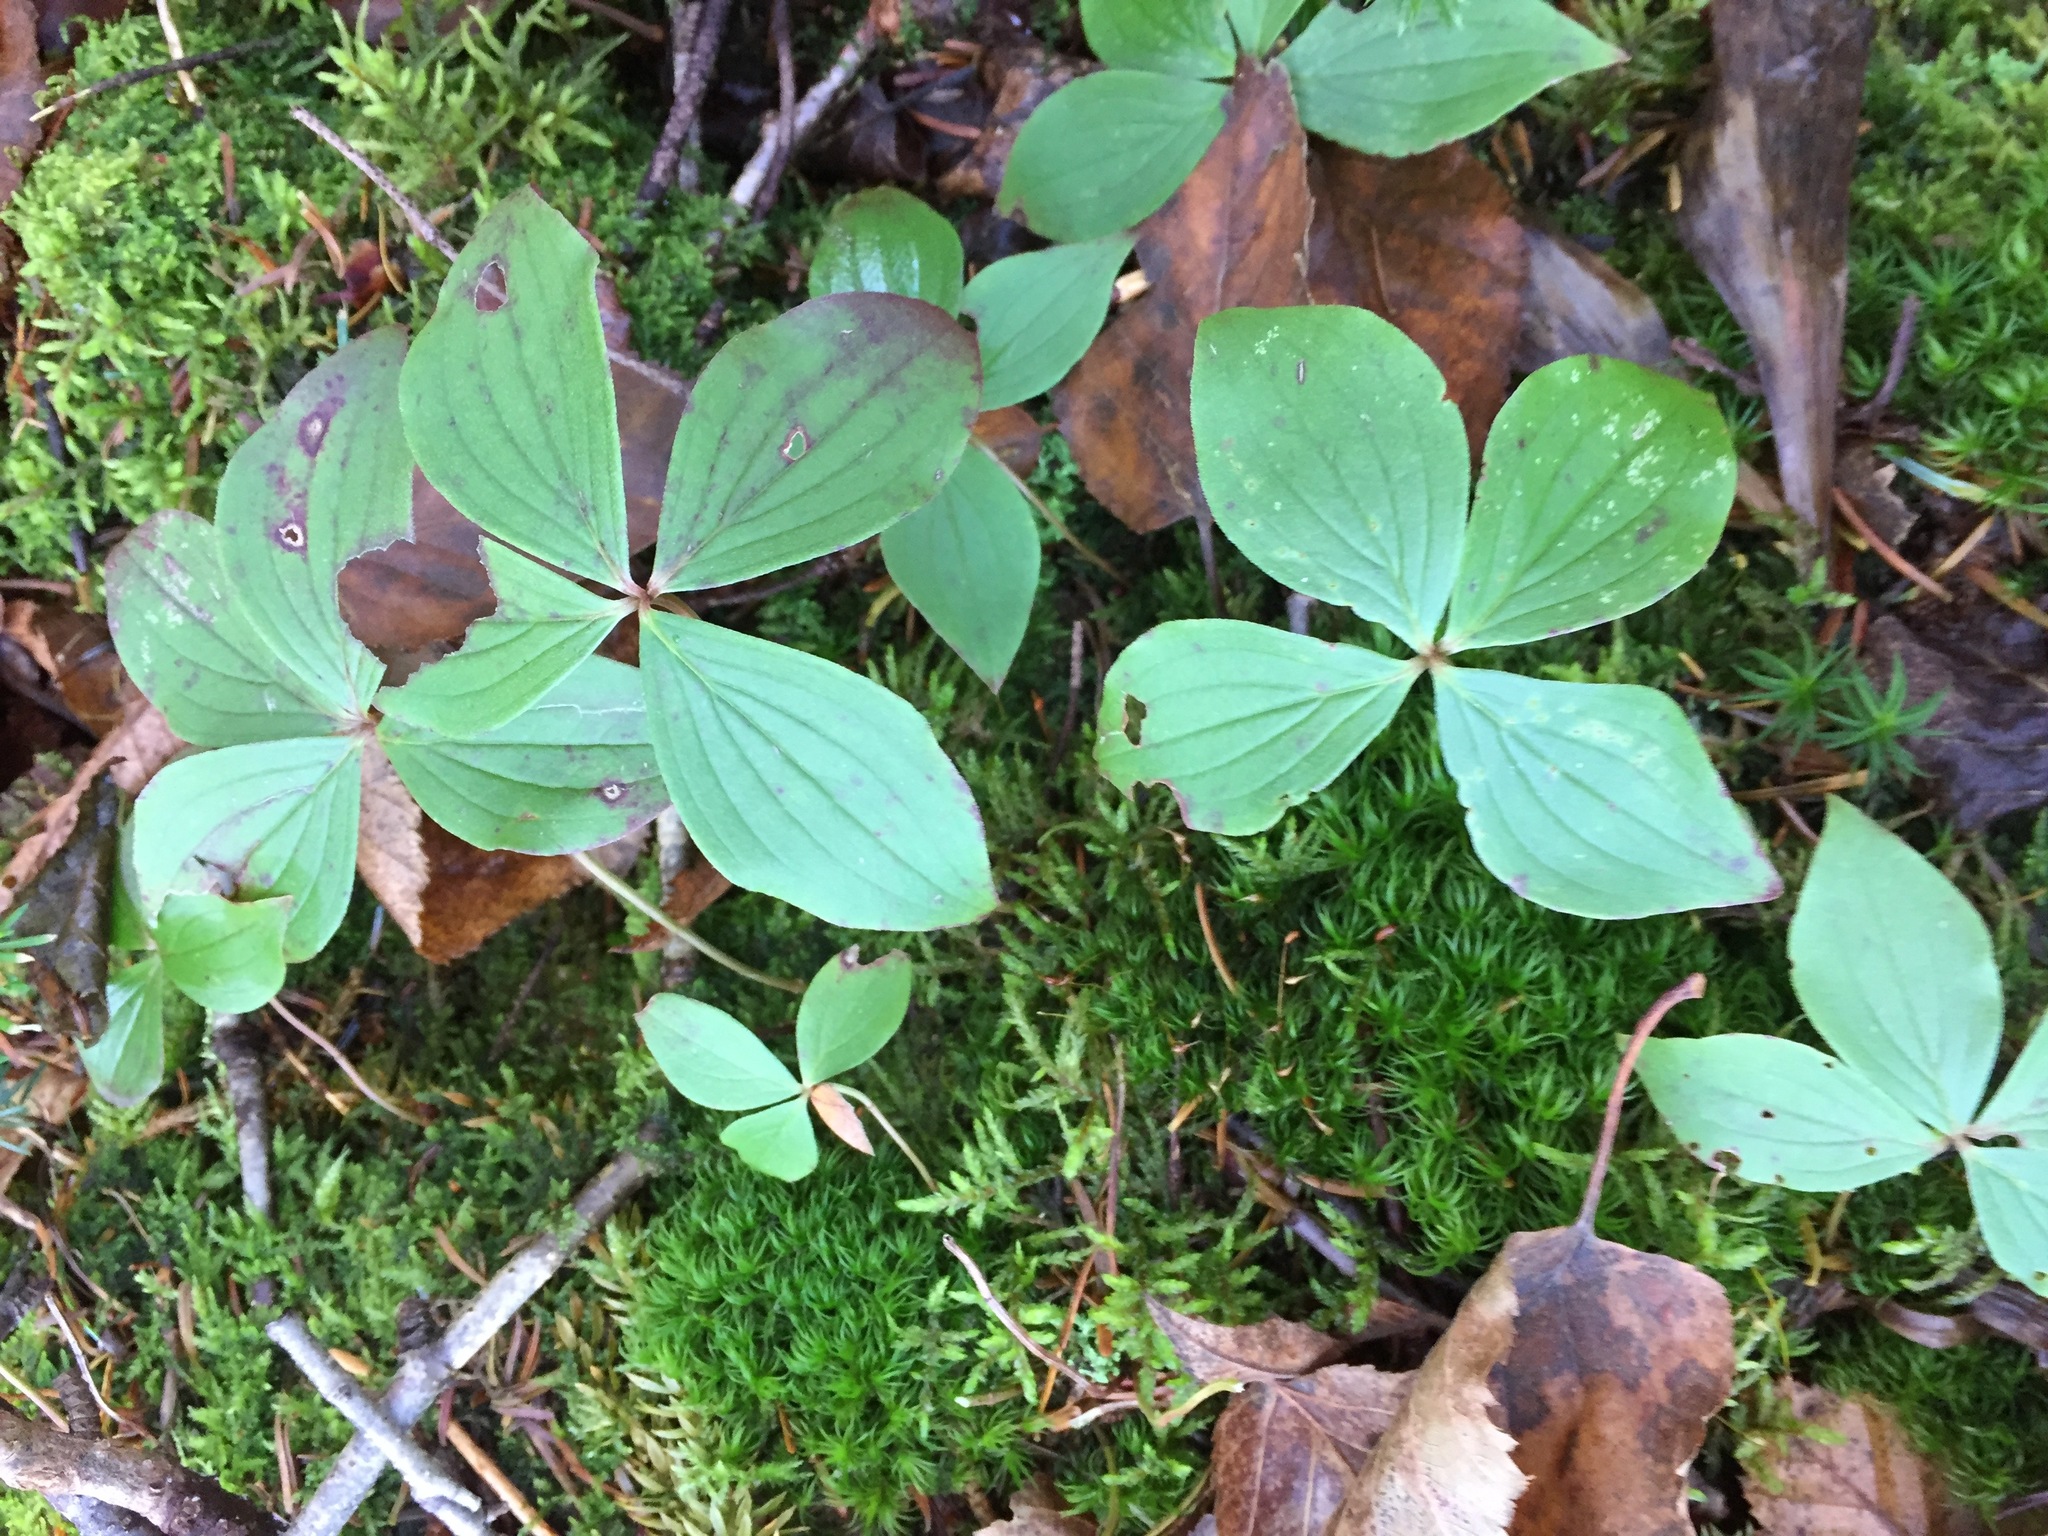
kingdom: Plantae
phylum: Tracheophyta
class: Magnoliopsida
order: Cornales
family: Cornaceae
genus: Cornus
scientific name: Cornus canadensis
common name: Creeping dogwood
